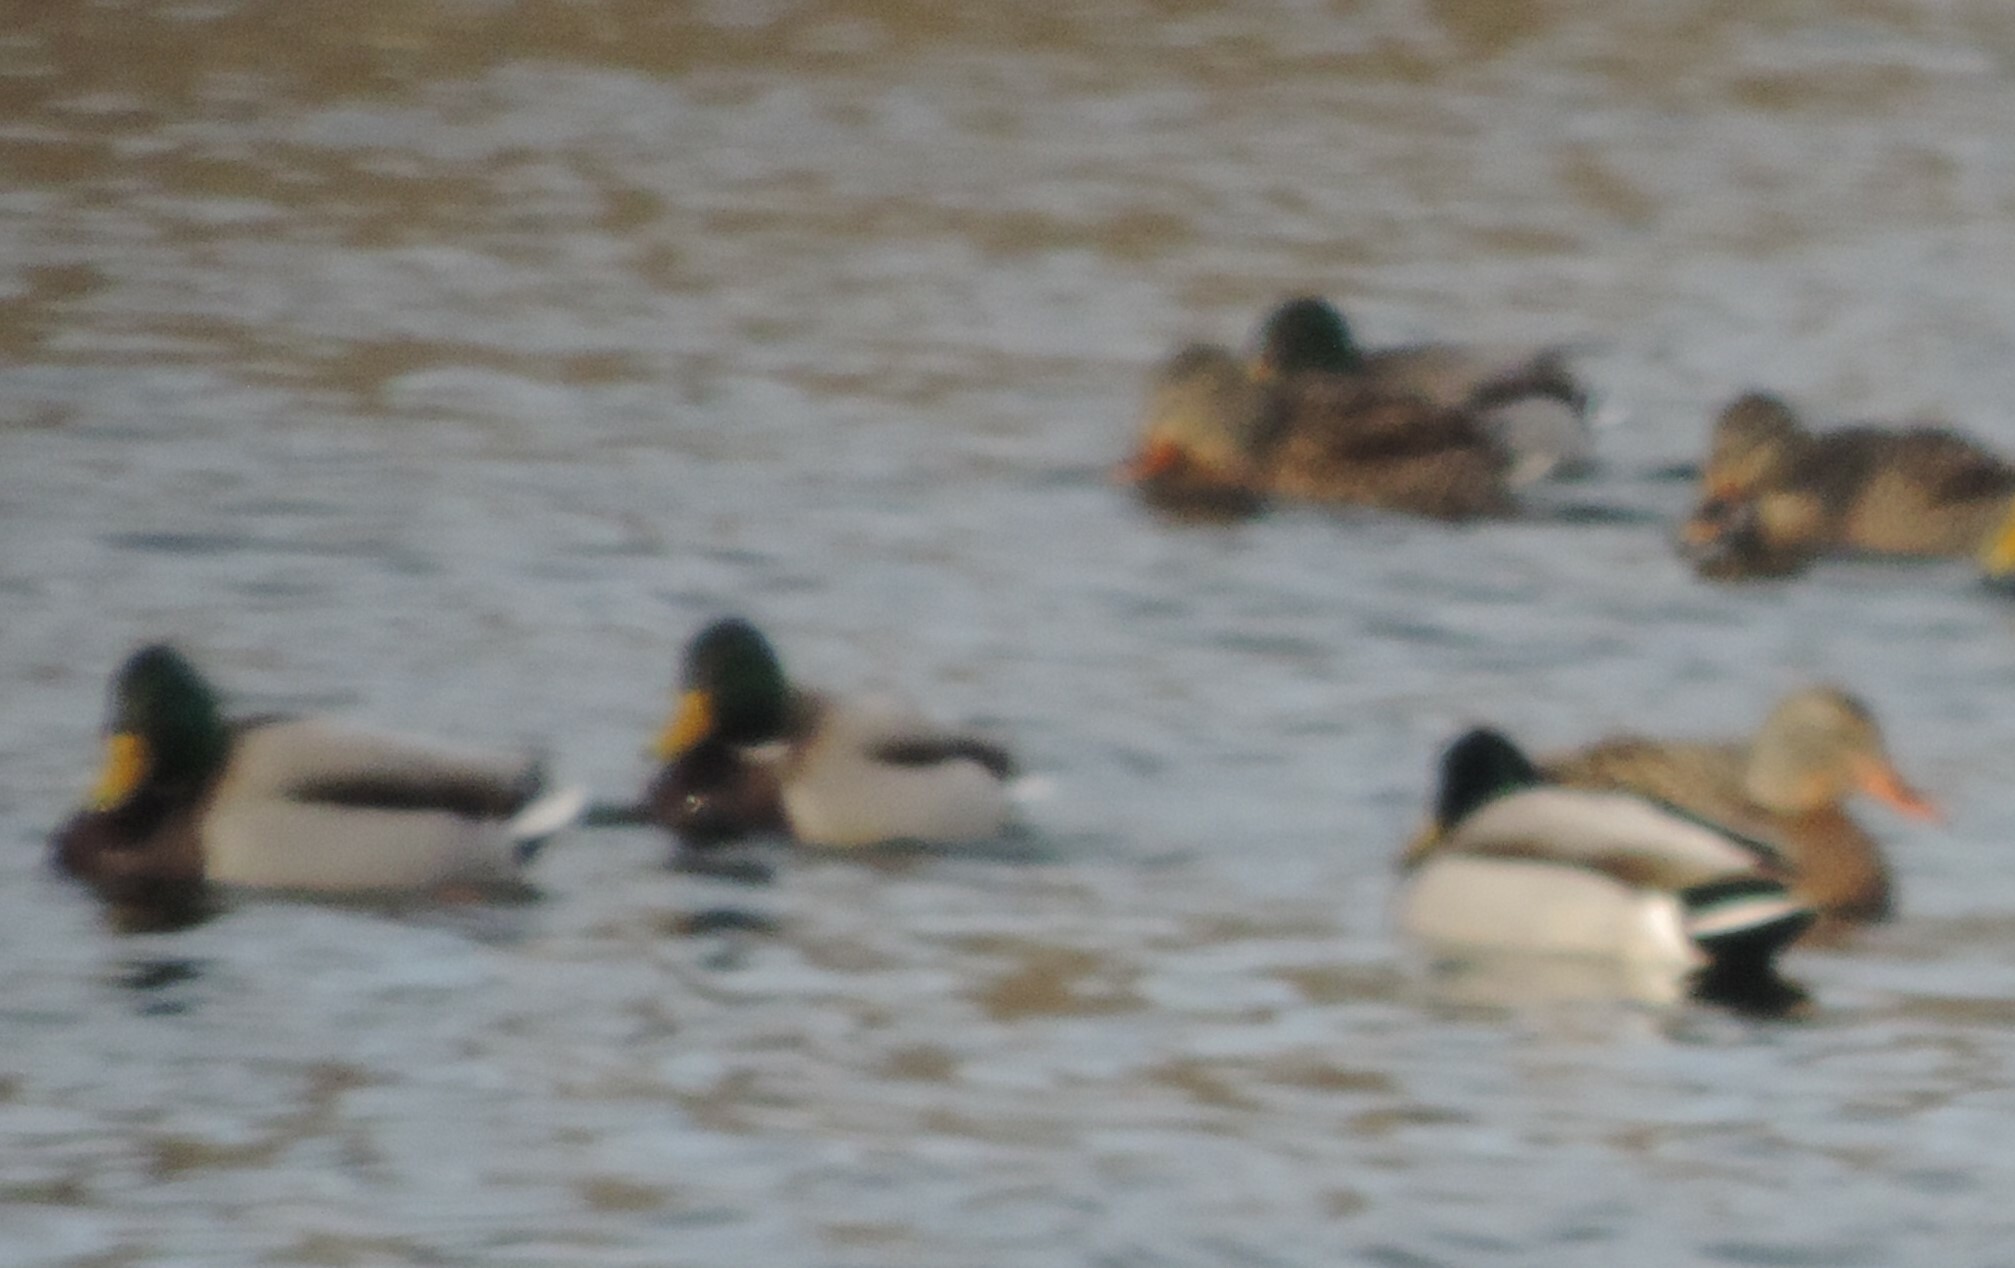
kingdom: Animalia
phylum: Chordata
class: Aves
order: Anseriformes
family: Anatidae
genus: Anas
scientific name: Anas platyrhynchos
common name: Mallard
